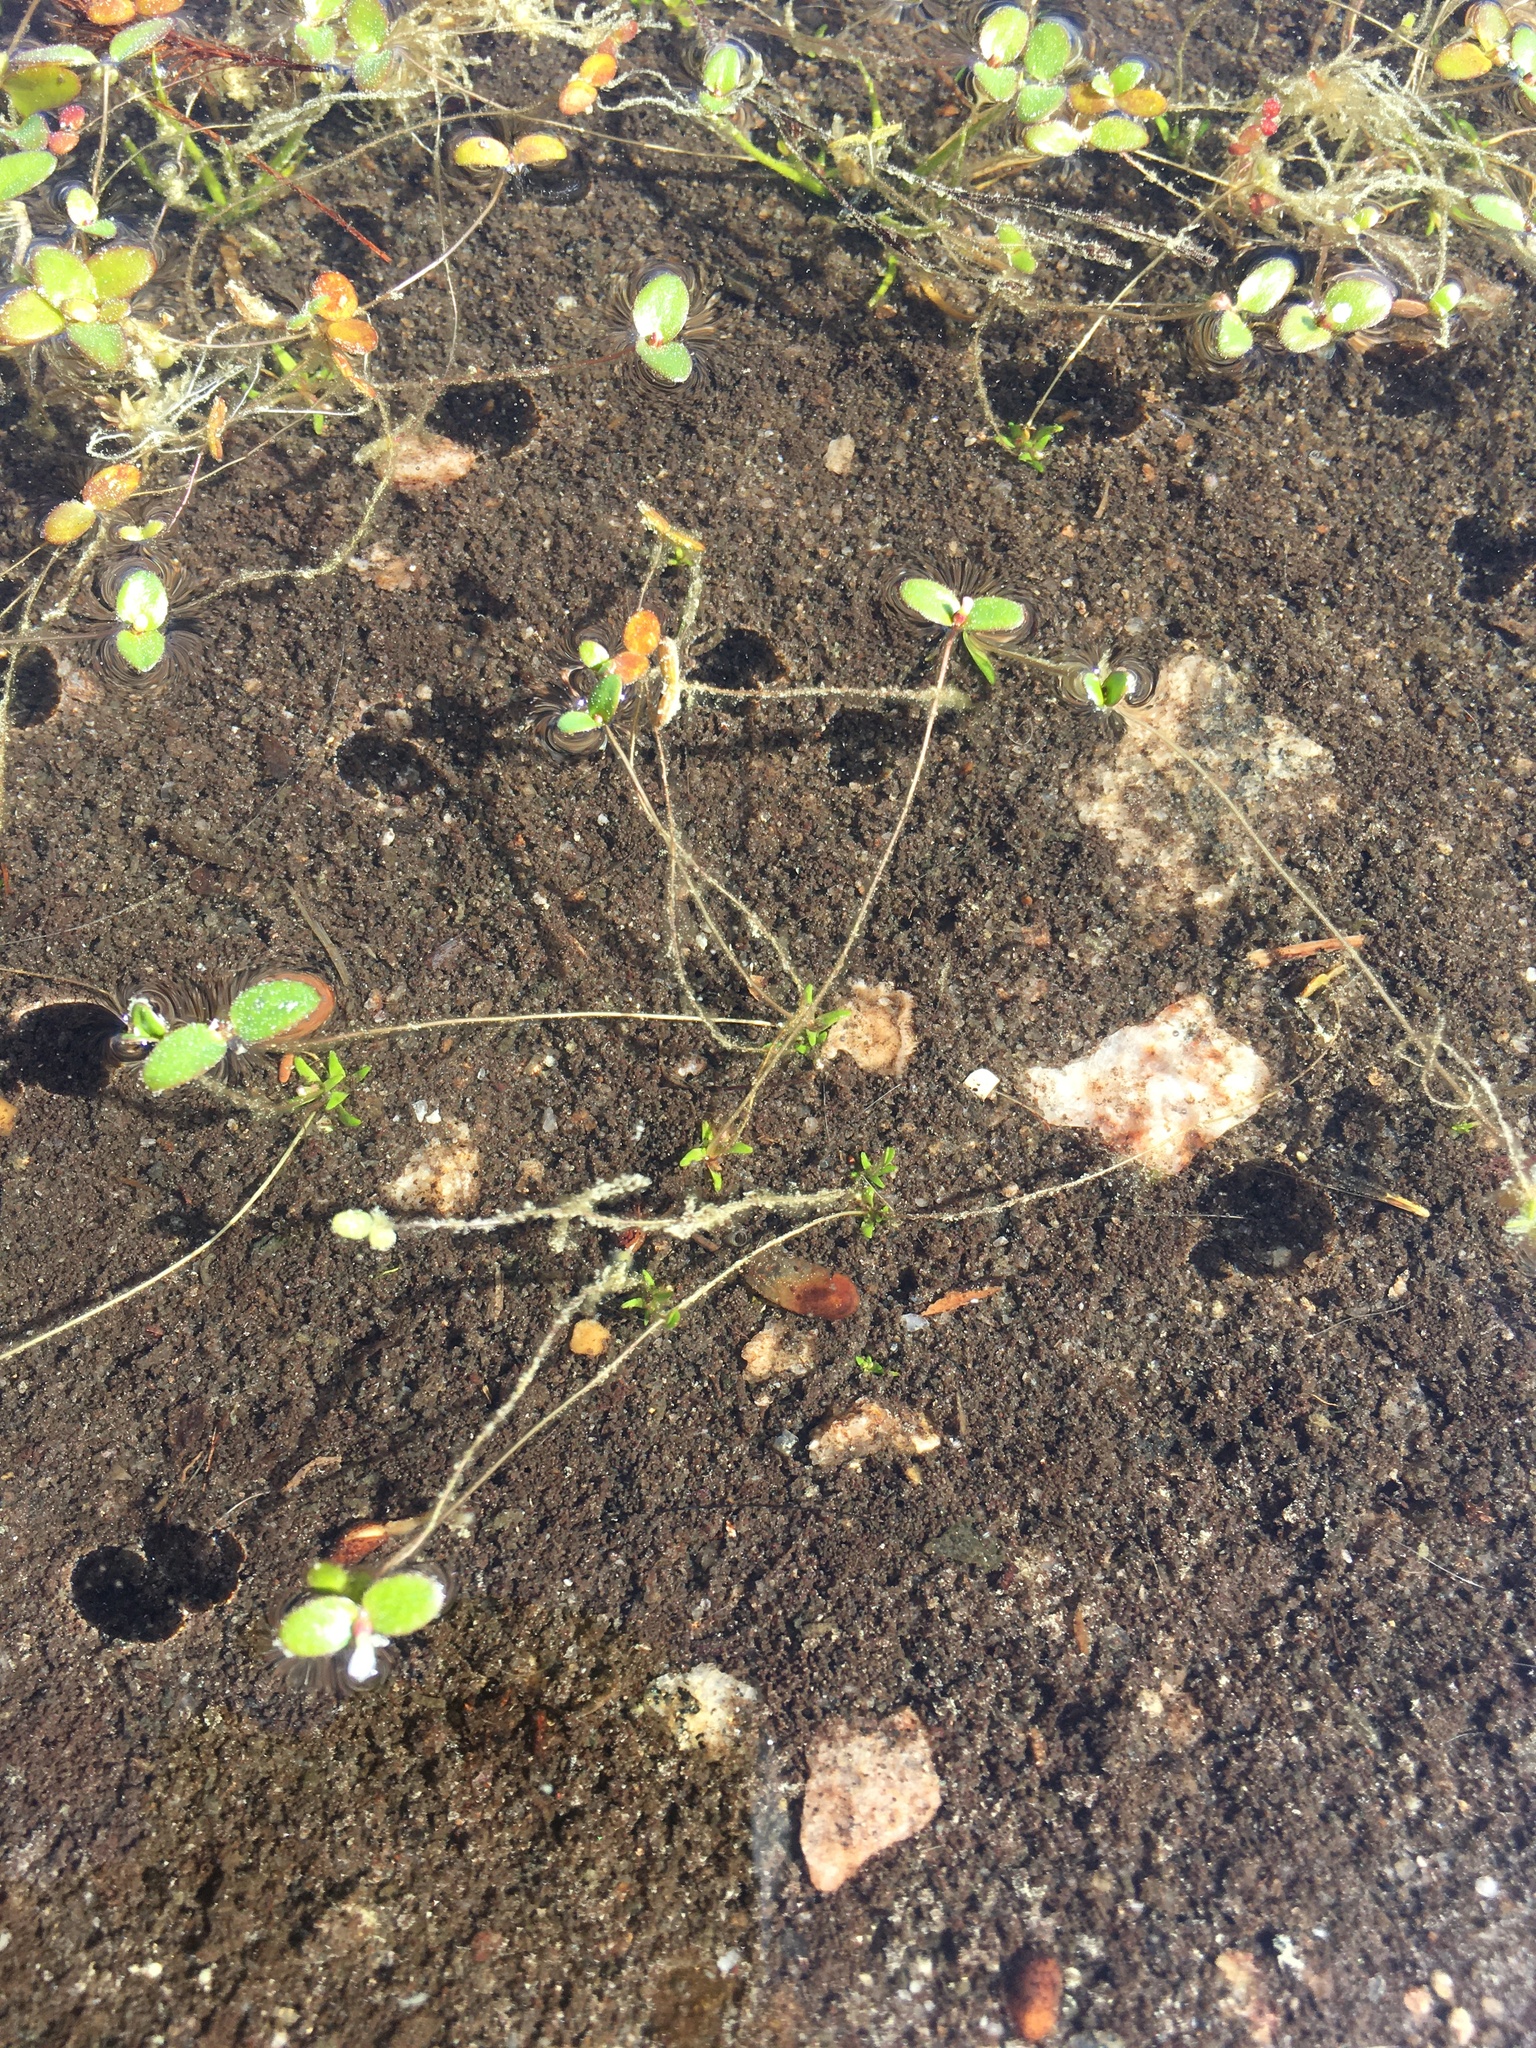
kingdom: Plantae
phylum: Tracheophyta
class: Magnoliopsida
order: Lamiales
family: Plantaginaceae
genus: Gratiola
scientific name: Gratiola amphiantha
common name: Little amphianthus
